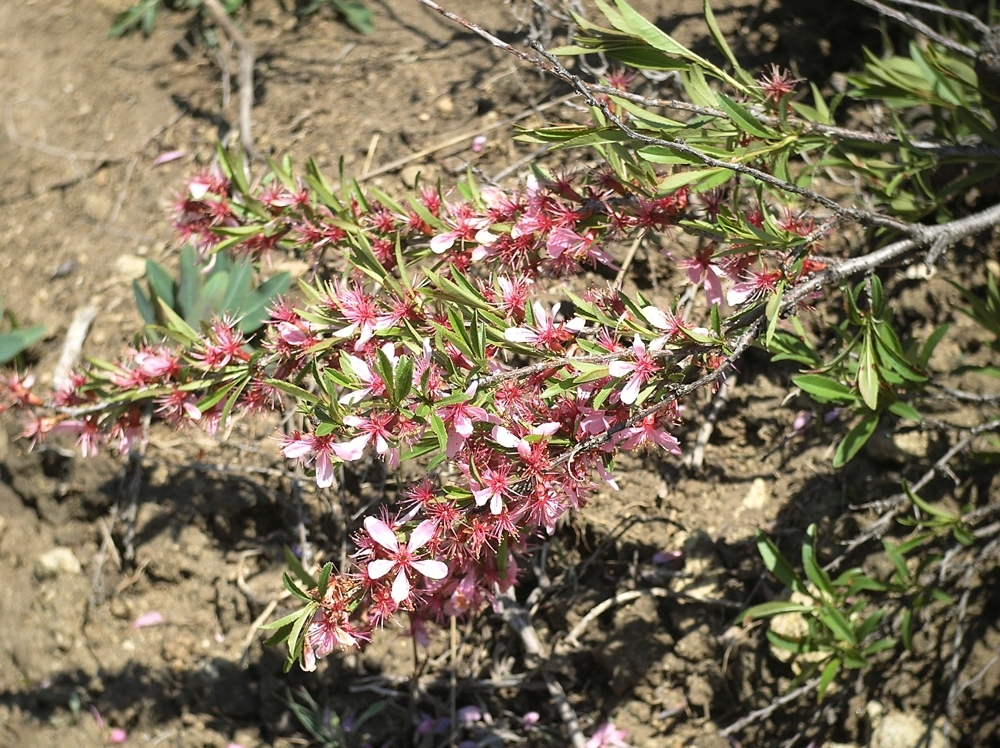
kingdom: Plantae
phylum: Tracheophyta
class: Magnoliopsida
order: Rosales
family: Rosaceae
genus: Prunus
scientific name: Prunus tenella
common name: Dwarf russian almond
